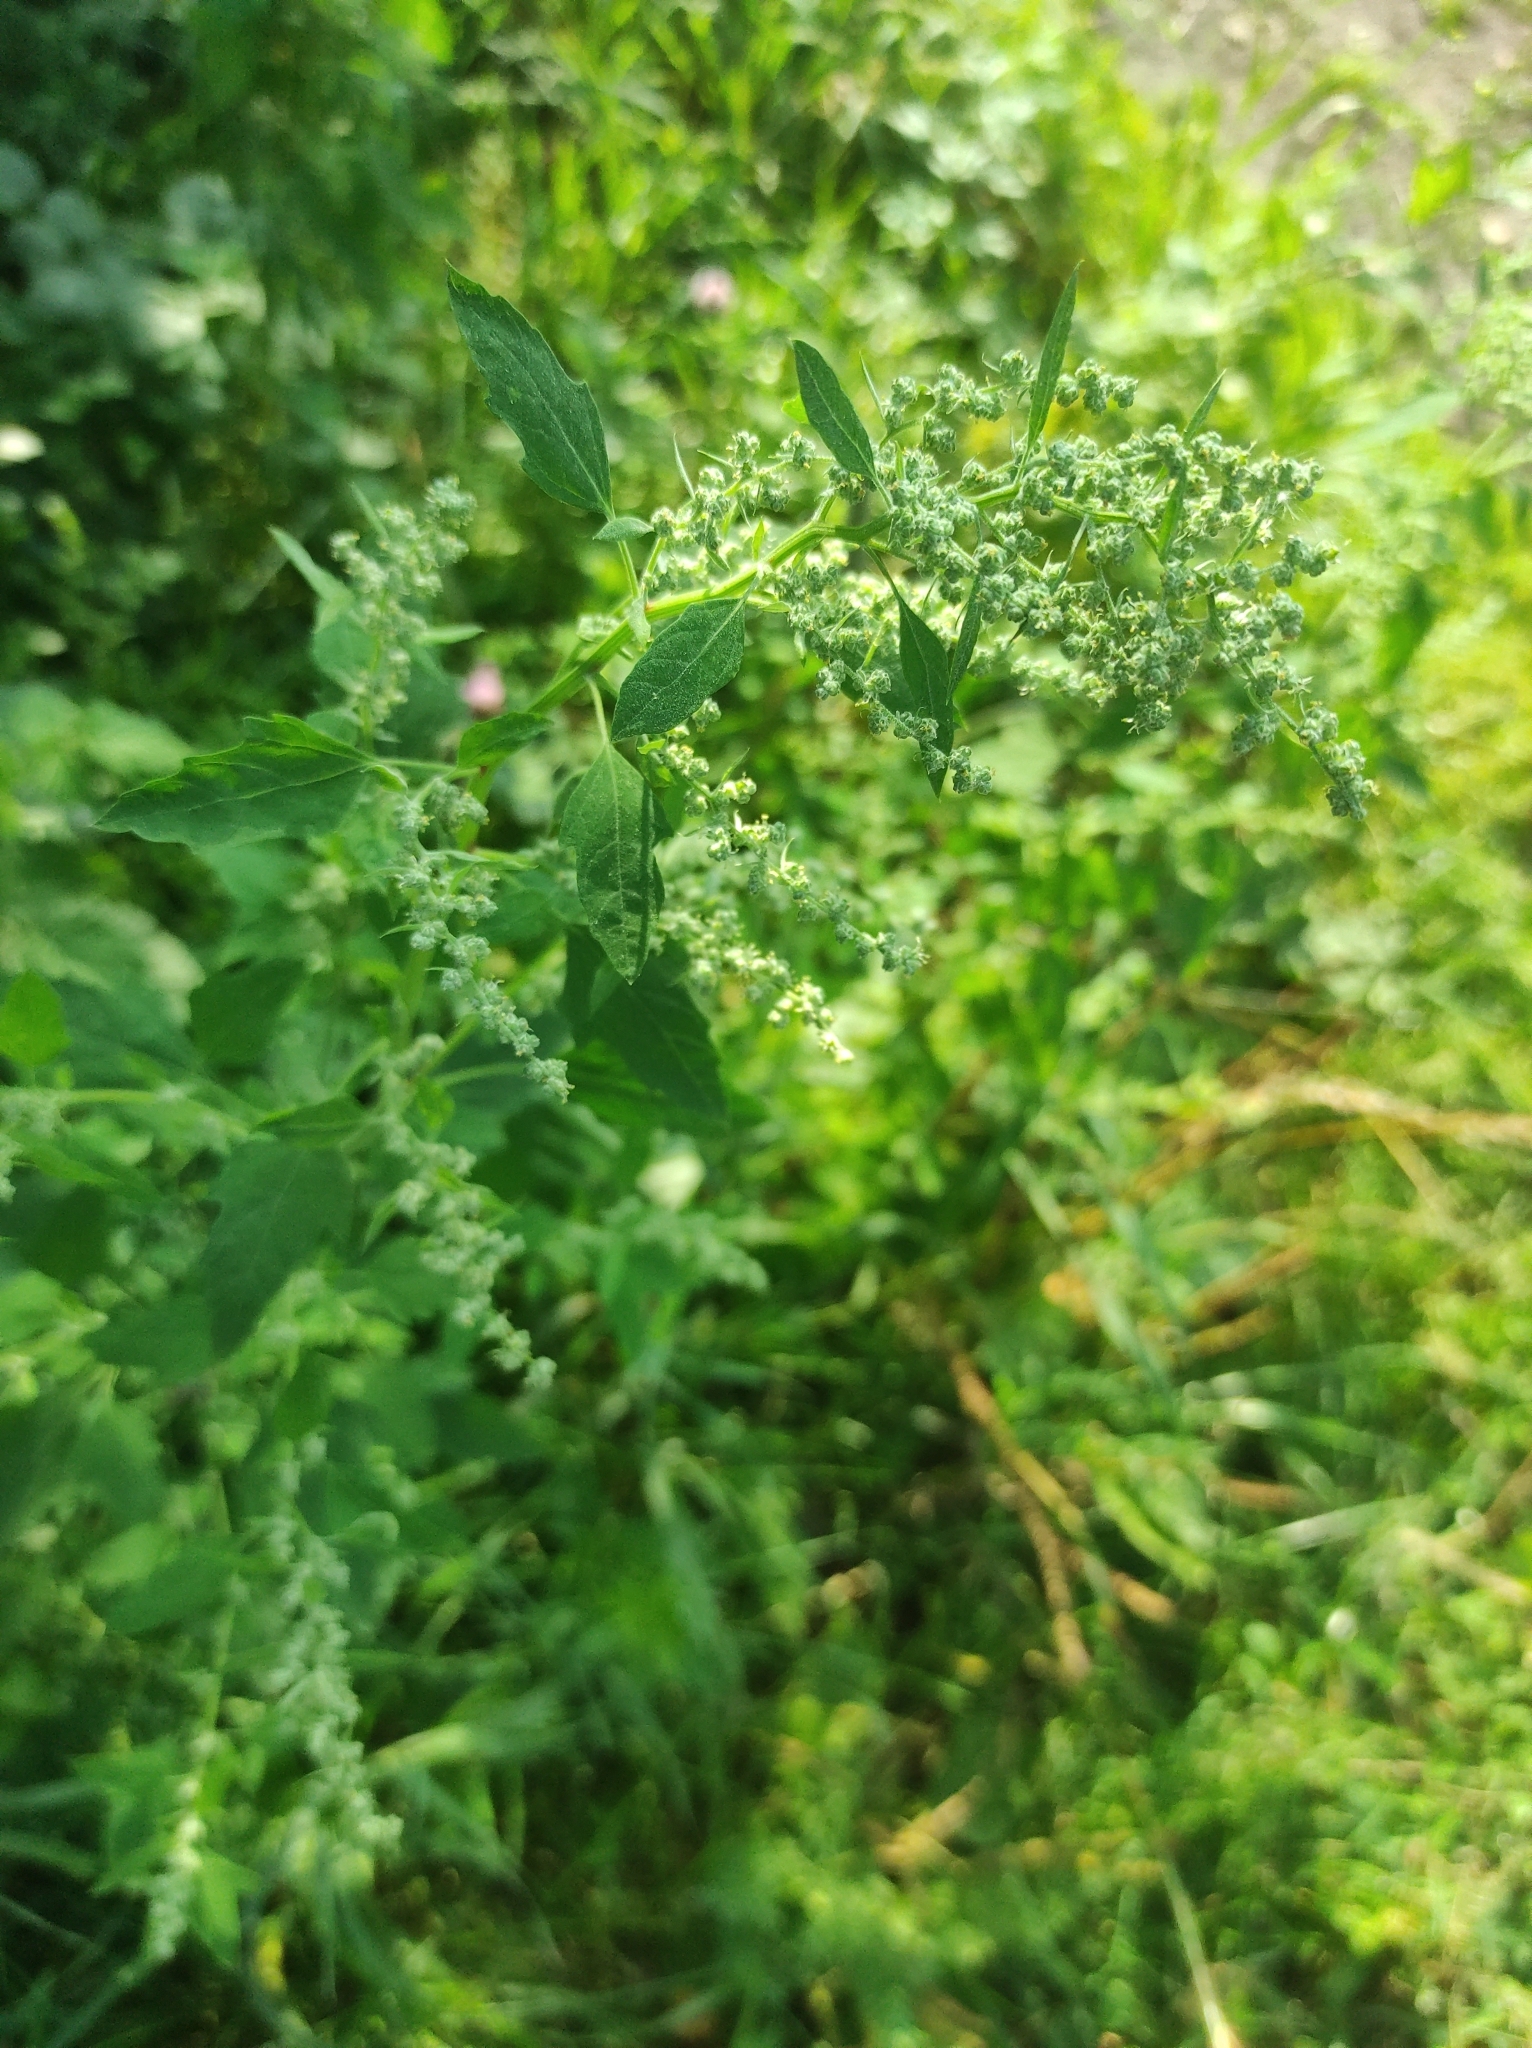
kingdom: Plantae
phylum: Tracheophyta
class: Magnoliopsida
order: Caryophyllales
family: Amaranthaceae
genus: Chenopodium
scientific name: Chenopodium album
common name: Fat-hen
